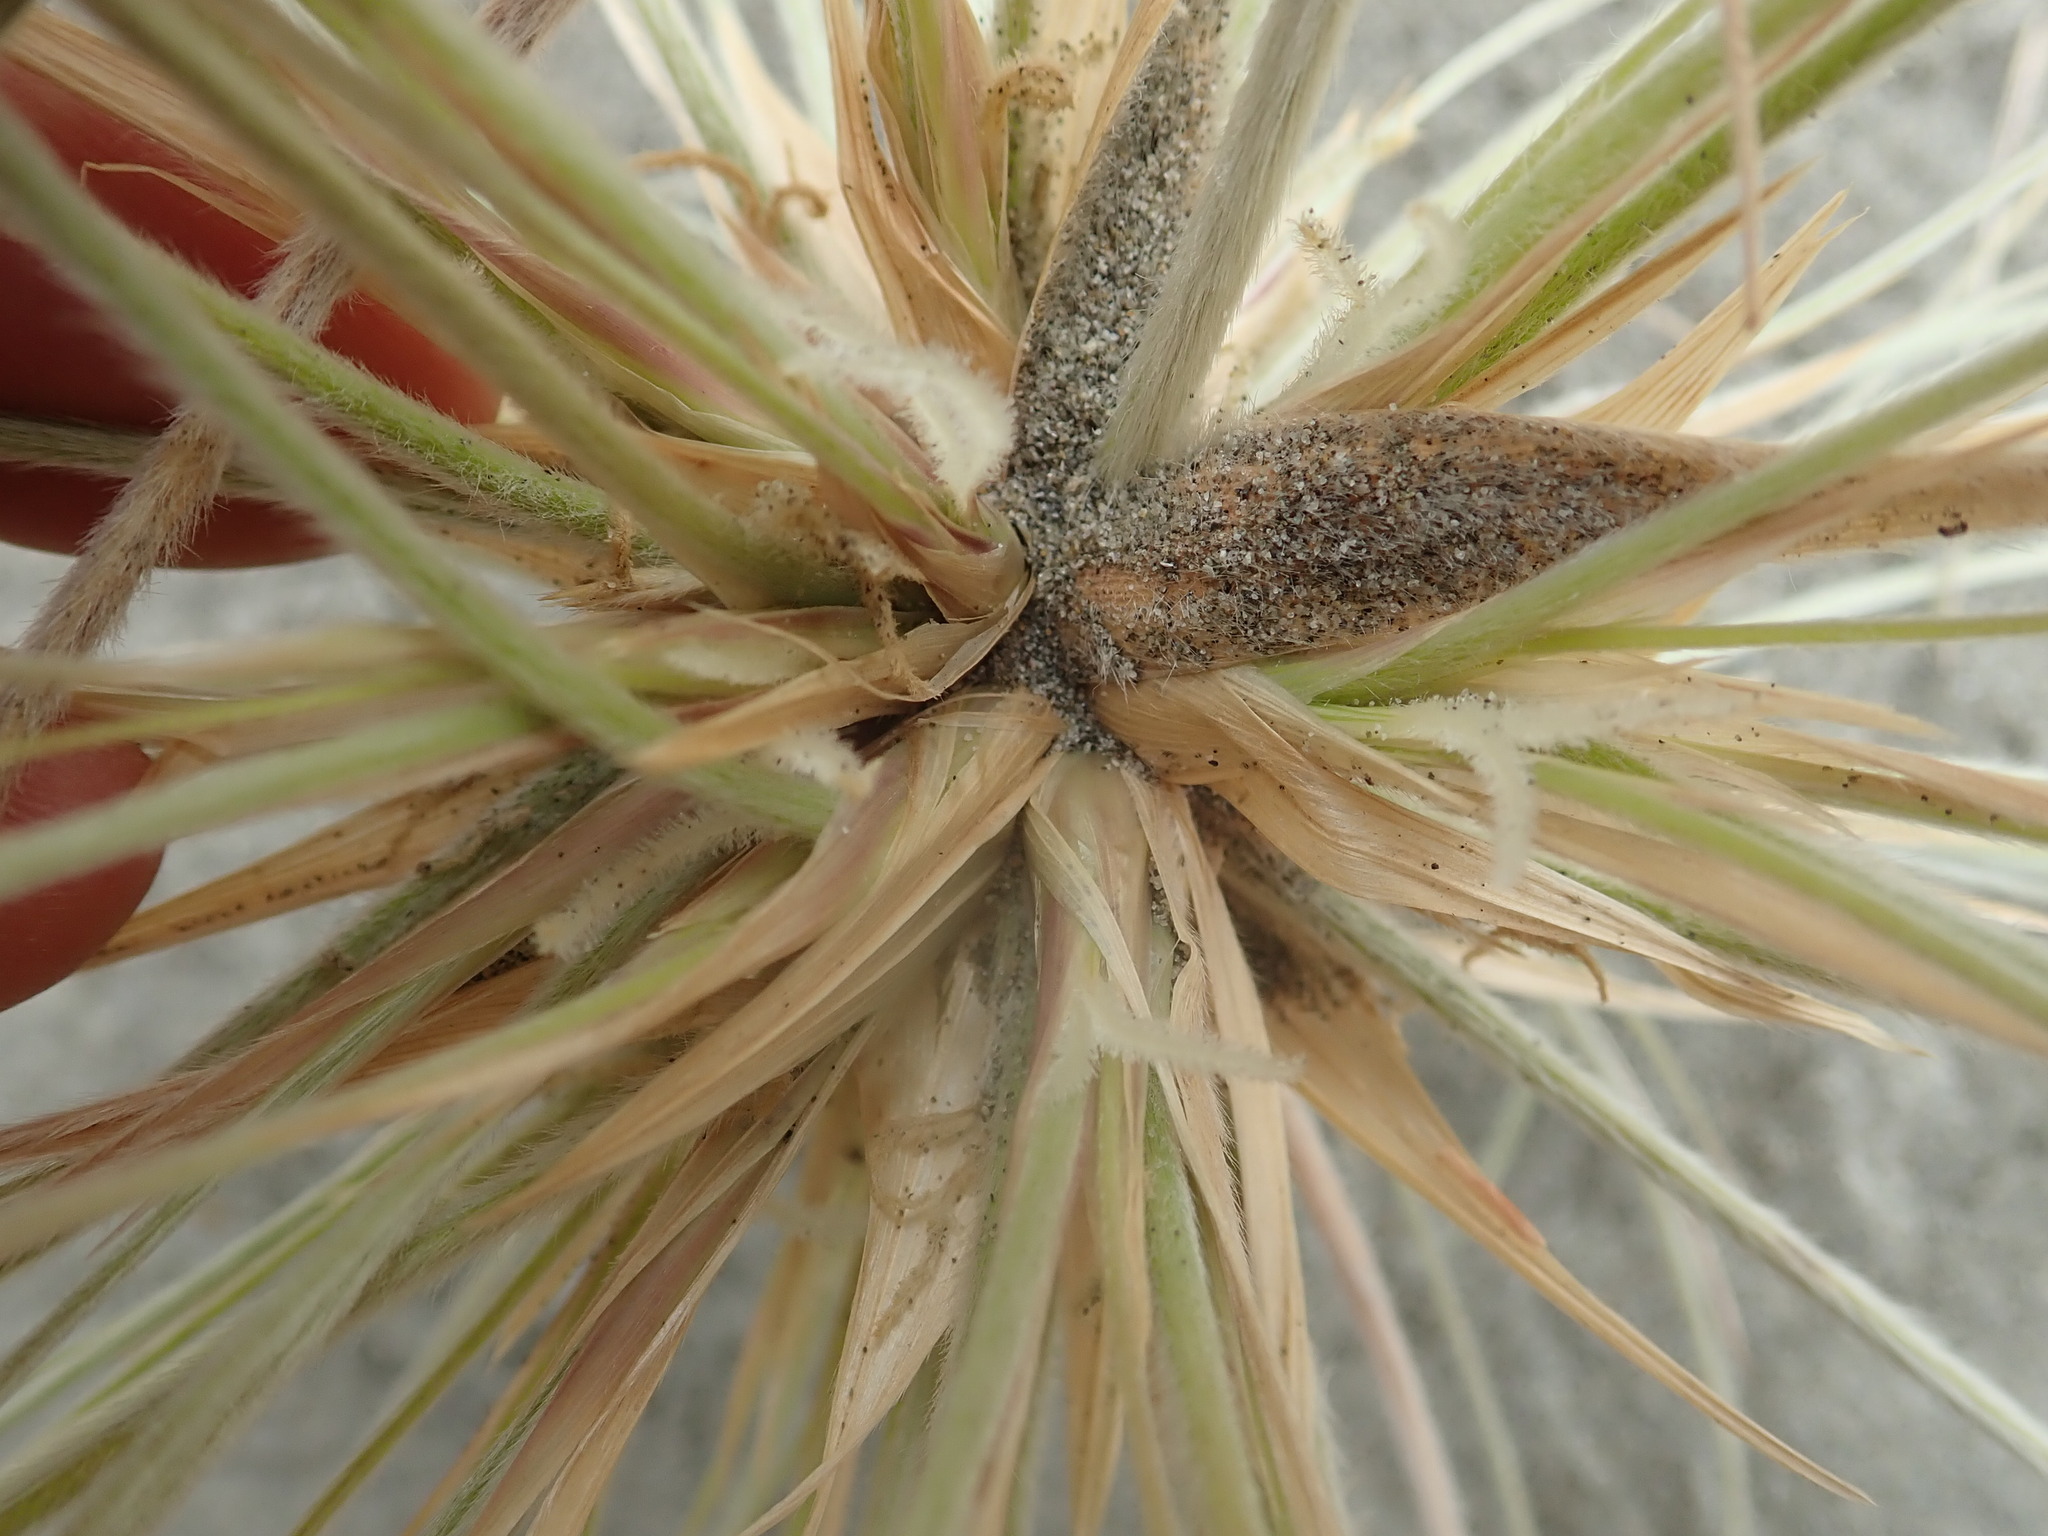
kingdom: Plantae
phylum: Tracheophyta
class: Liliopsida
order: Poales
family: Poaceae
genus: Spinifex
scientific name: Spinifex sericeus
